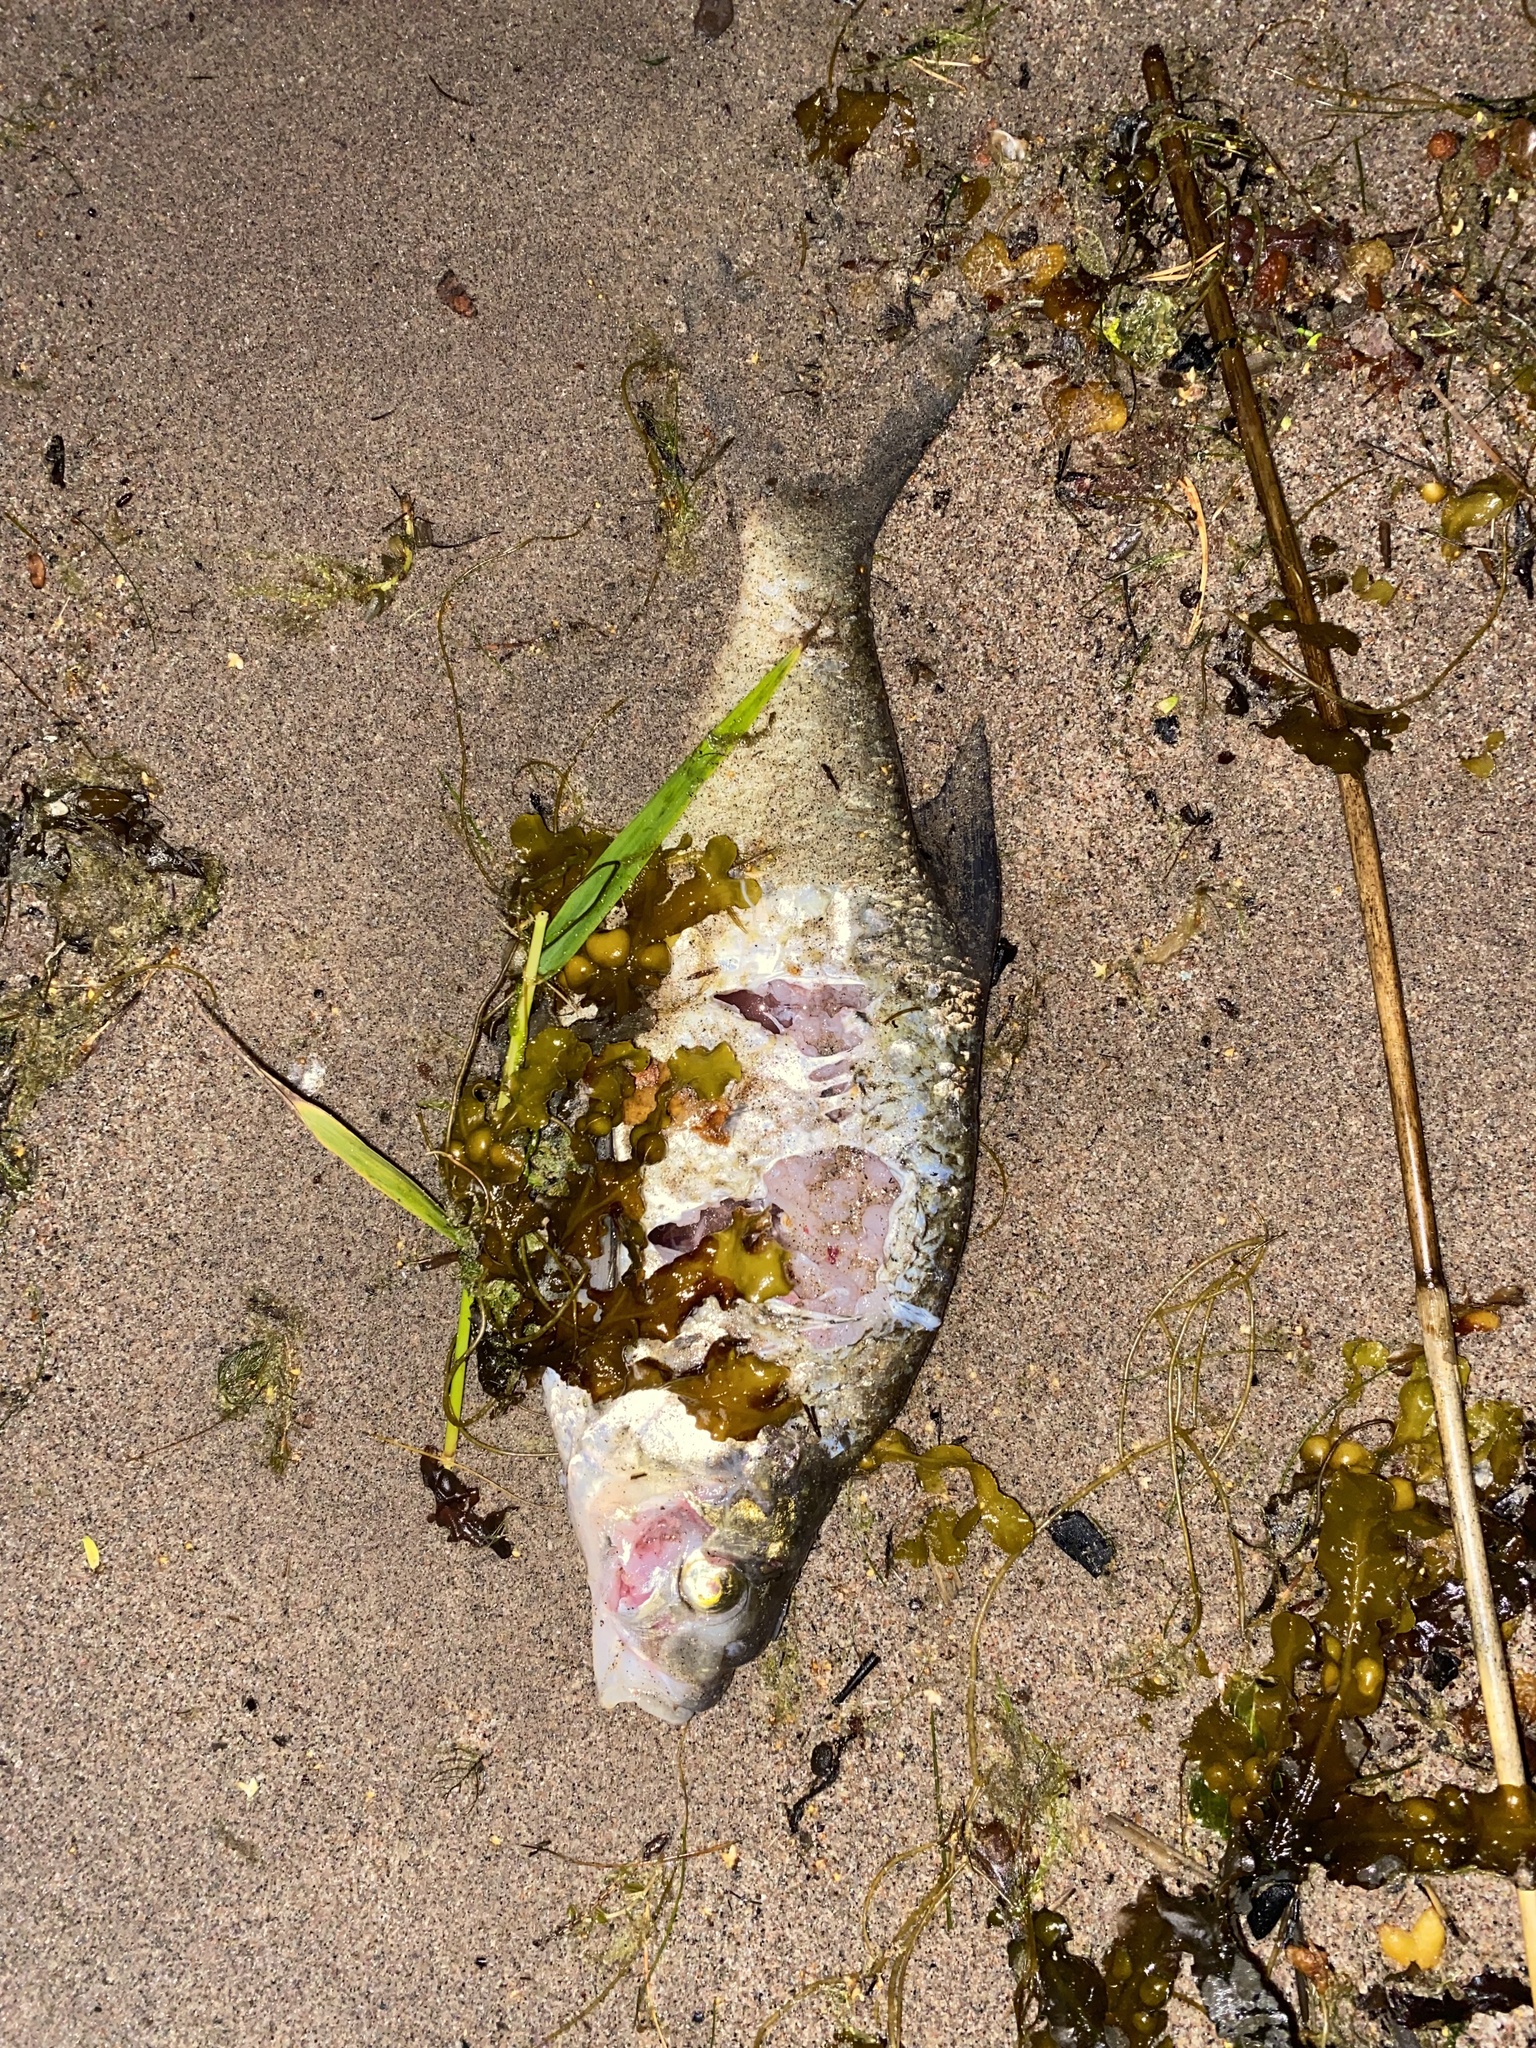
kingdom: Animalia
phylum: Chordata
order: Cypriniformes
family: Cyprinidae
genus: Abramis
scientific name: Abramis brama
